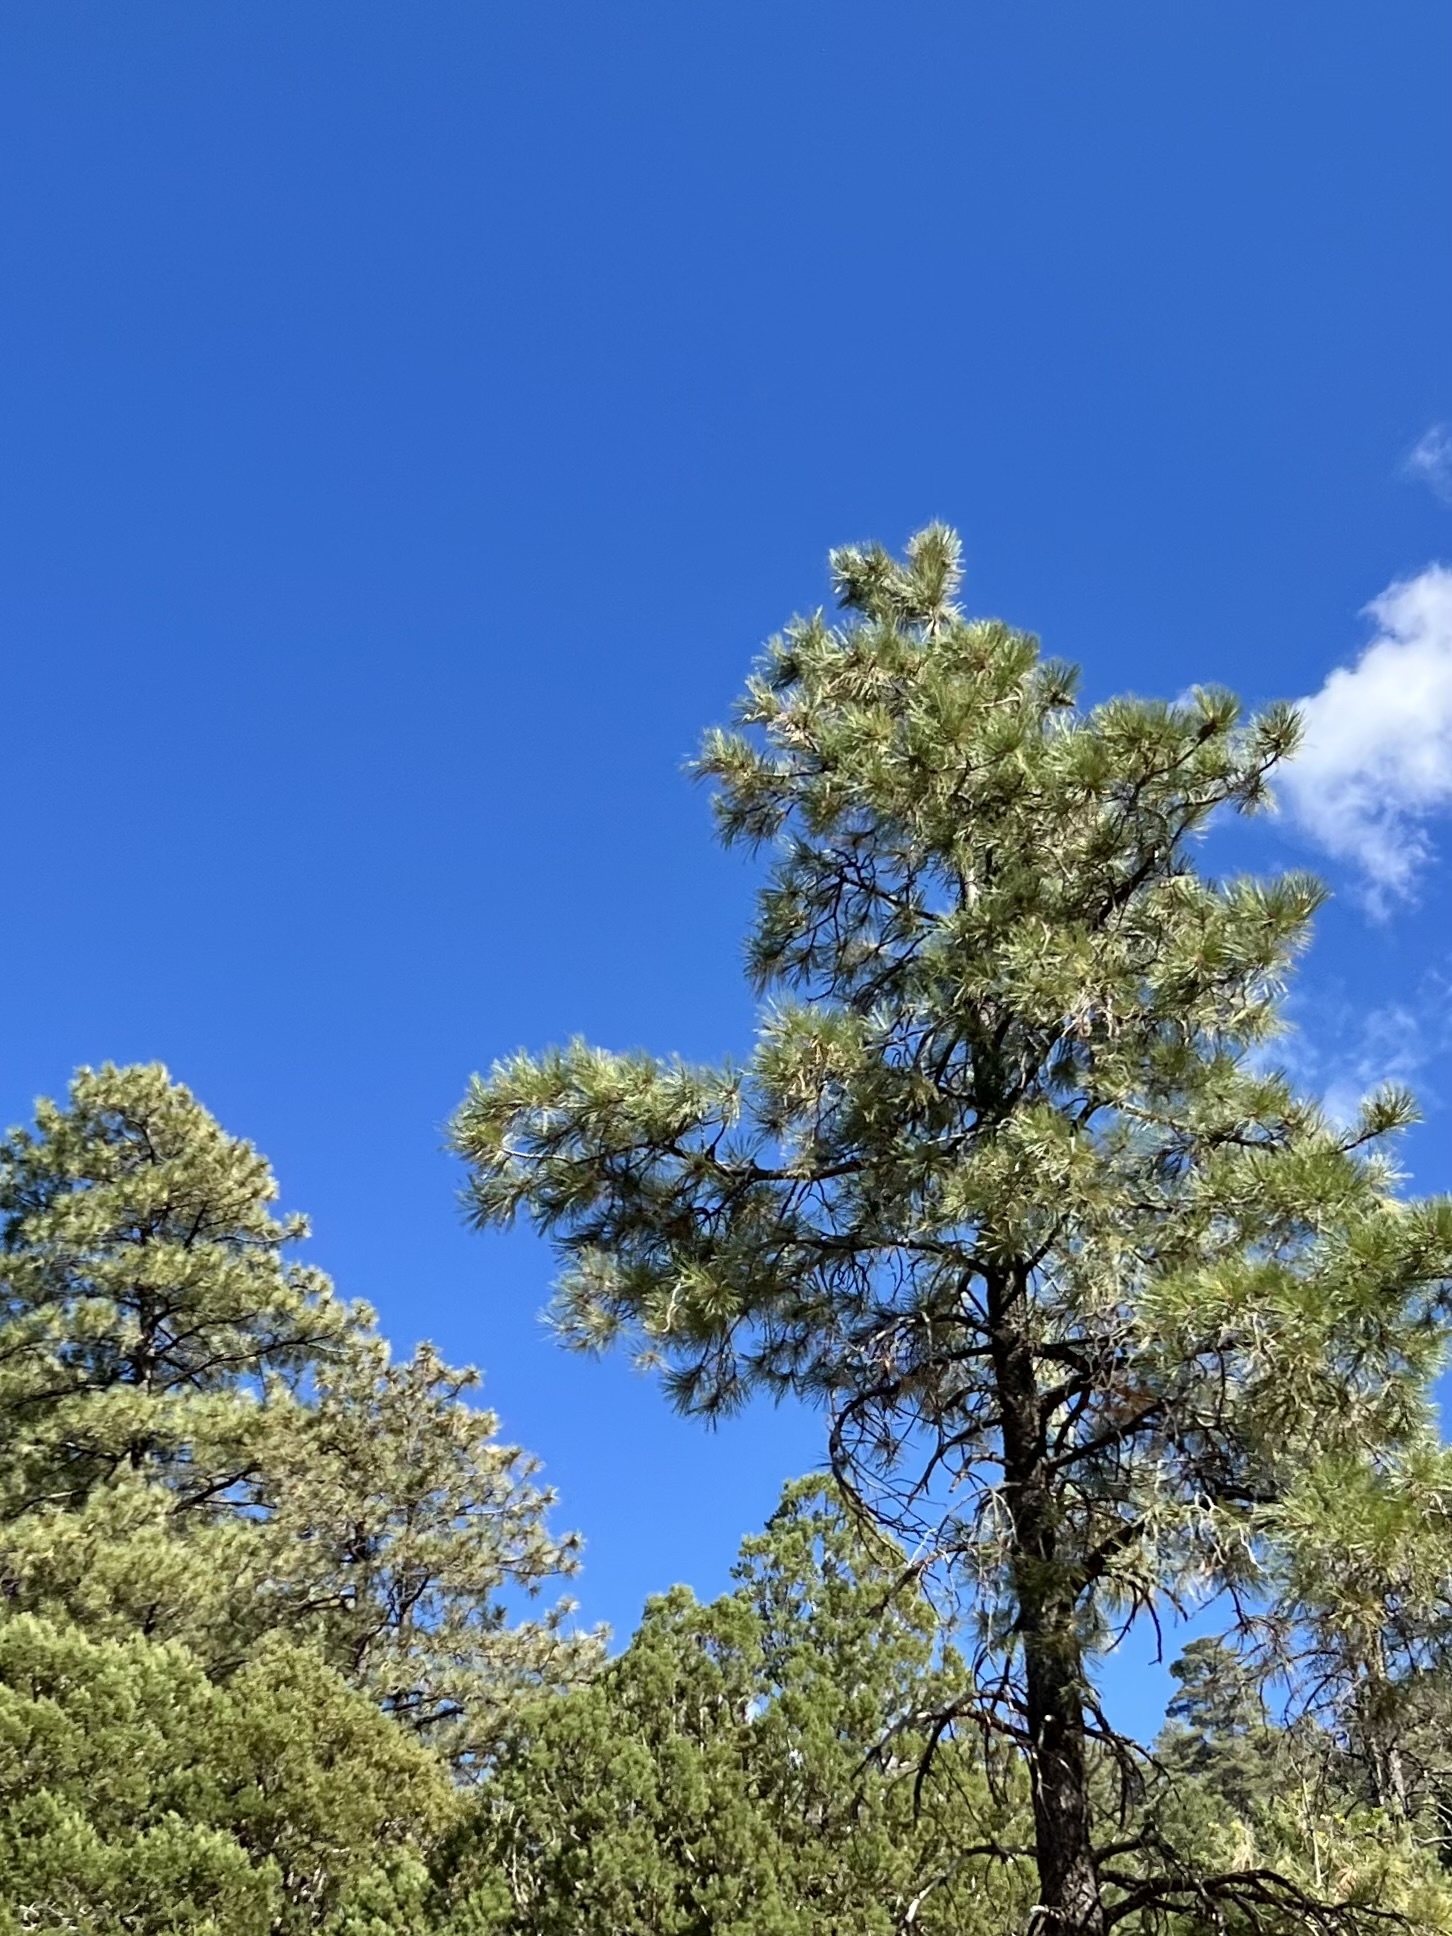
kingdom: Plantae
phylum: Tracheophyta
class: Pinopsida
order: Pinales
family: Pinaceae
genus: Pinus
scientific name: Pinus ponderosa
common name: Western yellow-pine
